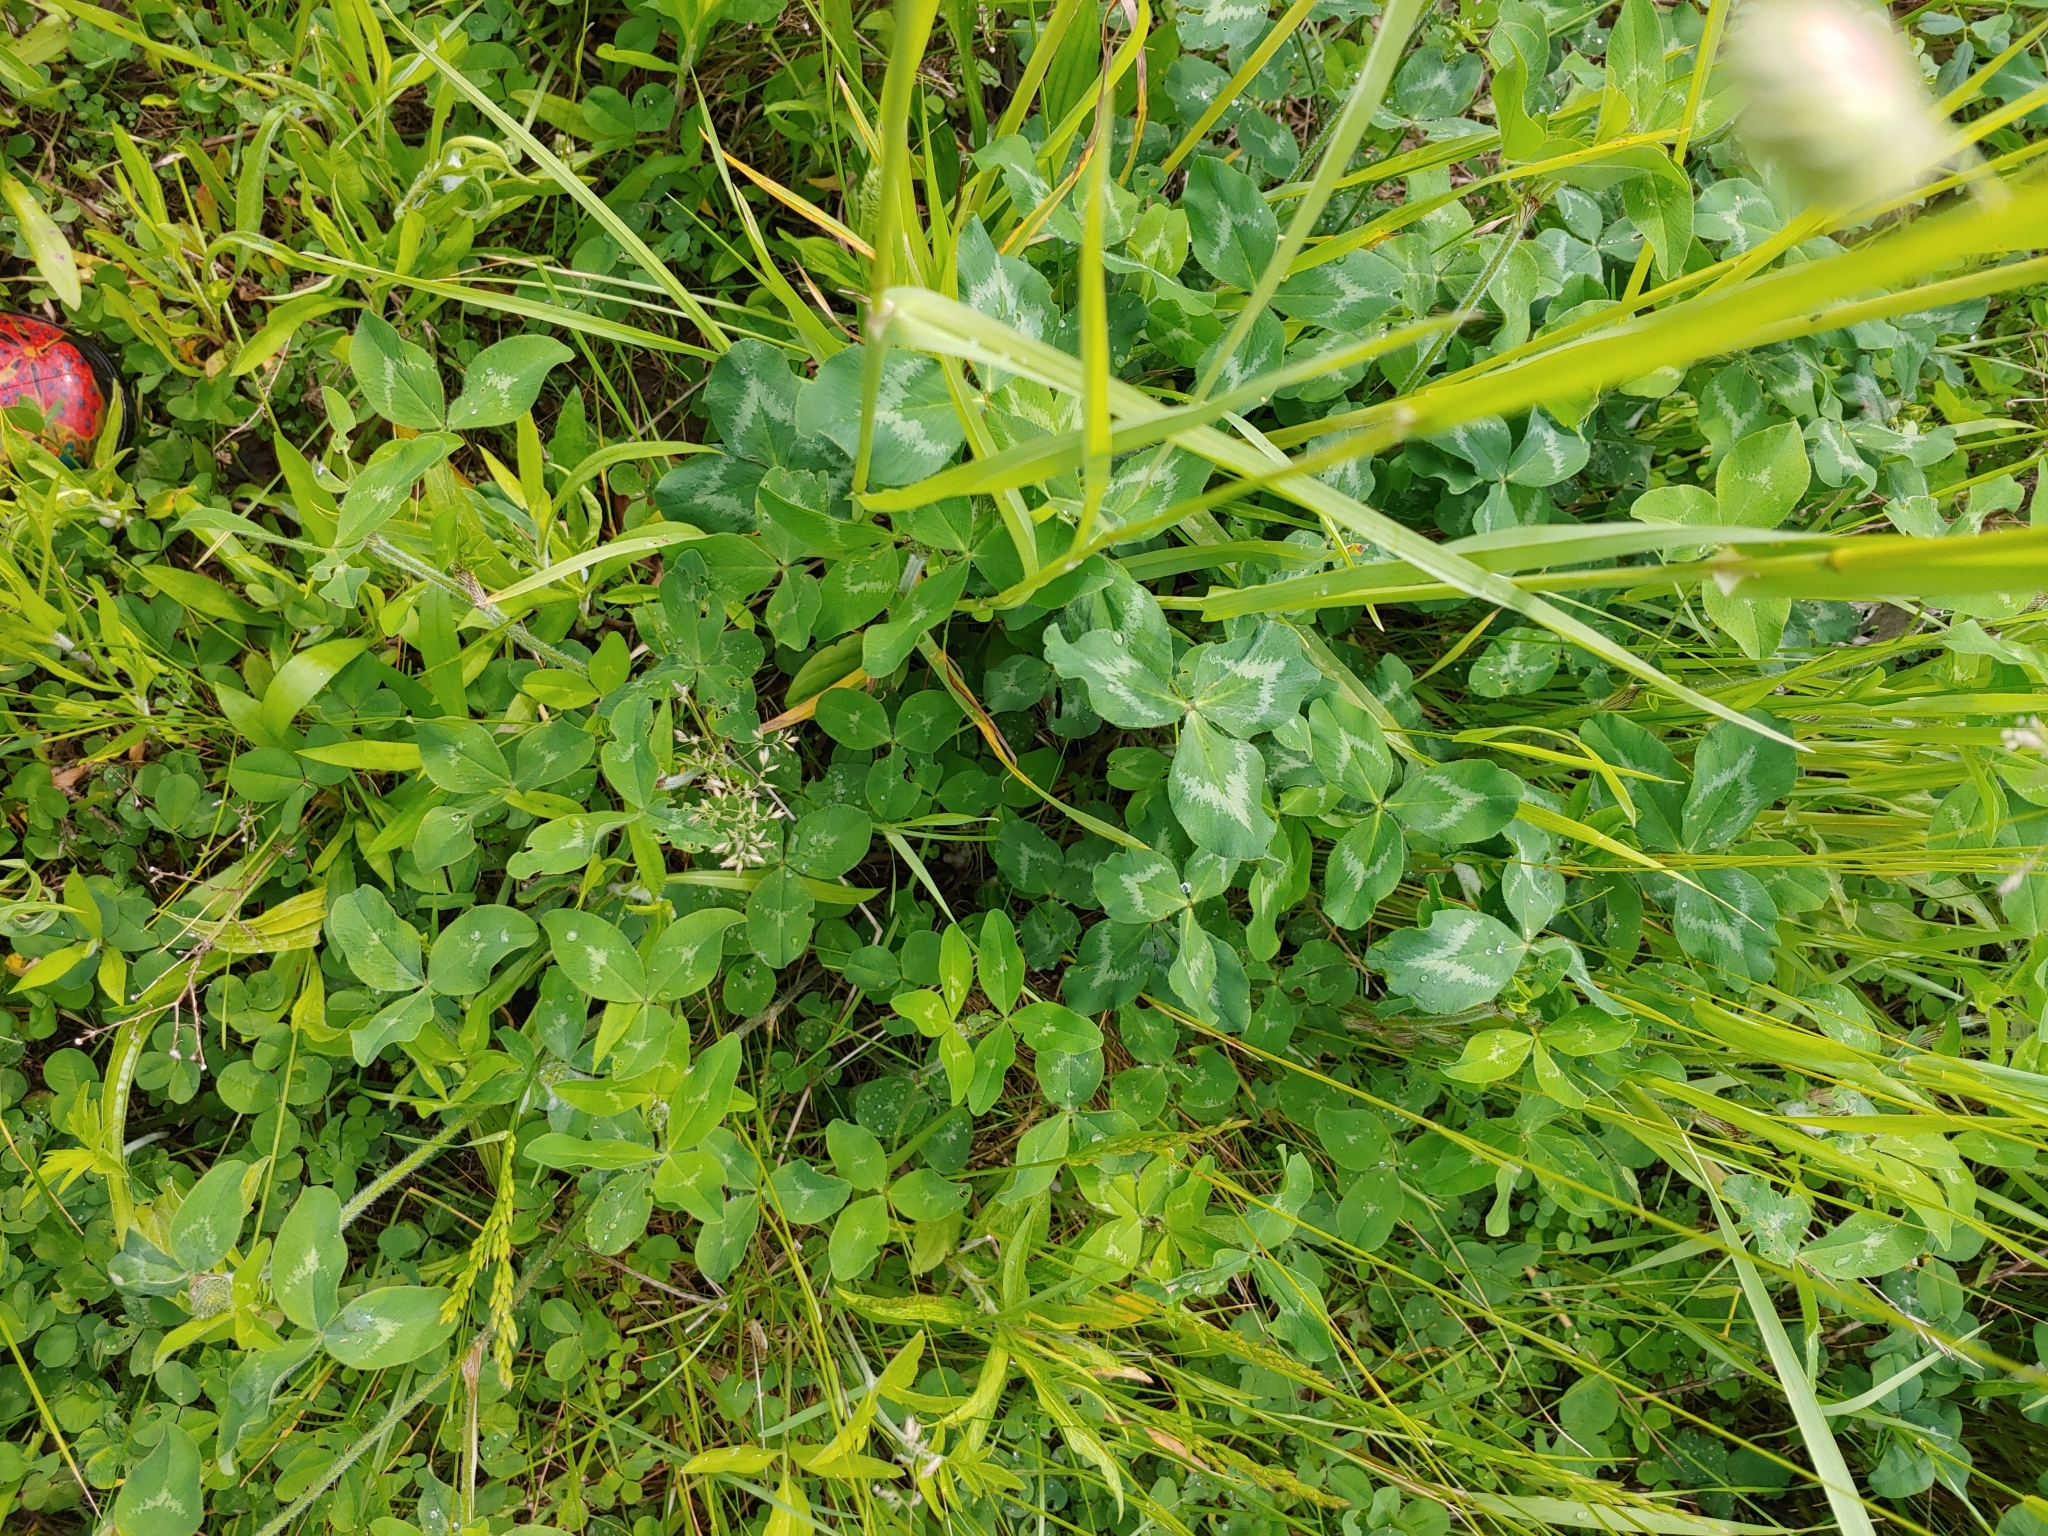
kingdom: Plantae
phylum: Tracheophyta
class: Magnoliopsida
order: Fabales
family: Fabaceae
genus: Trifolium
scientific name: Trifolium pratense
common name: Red clover
